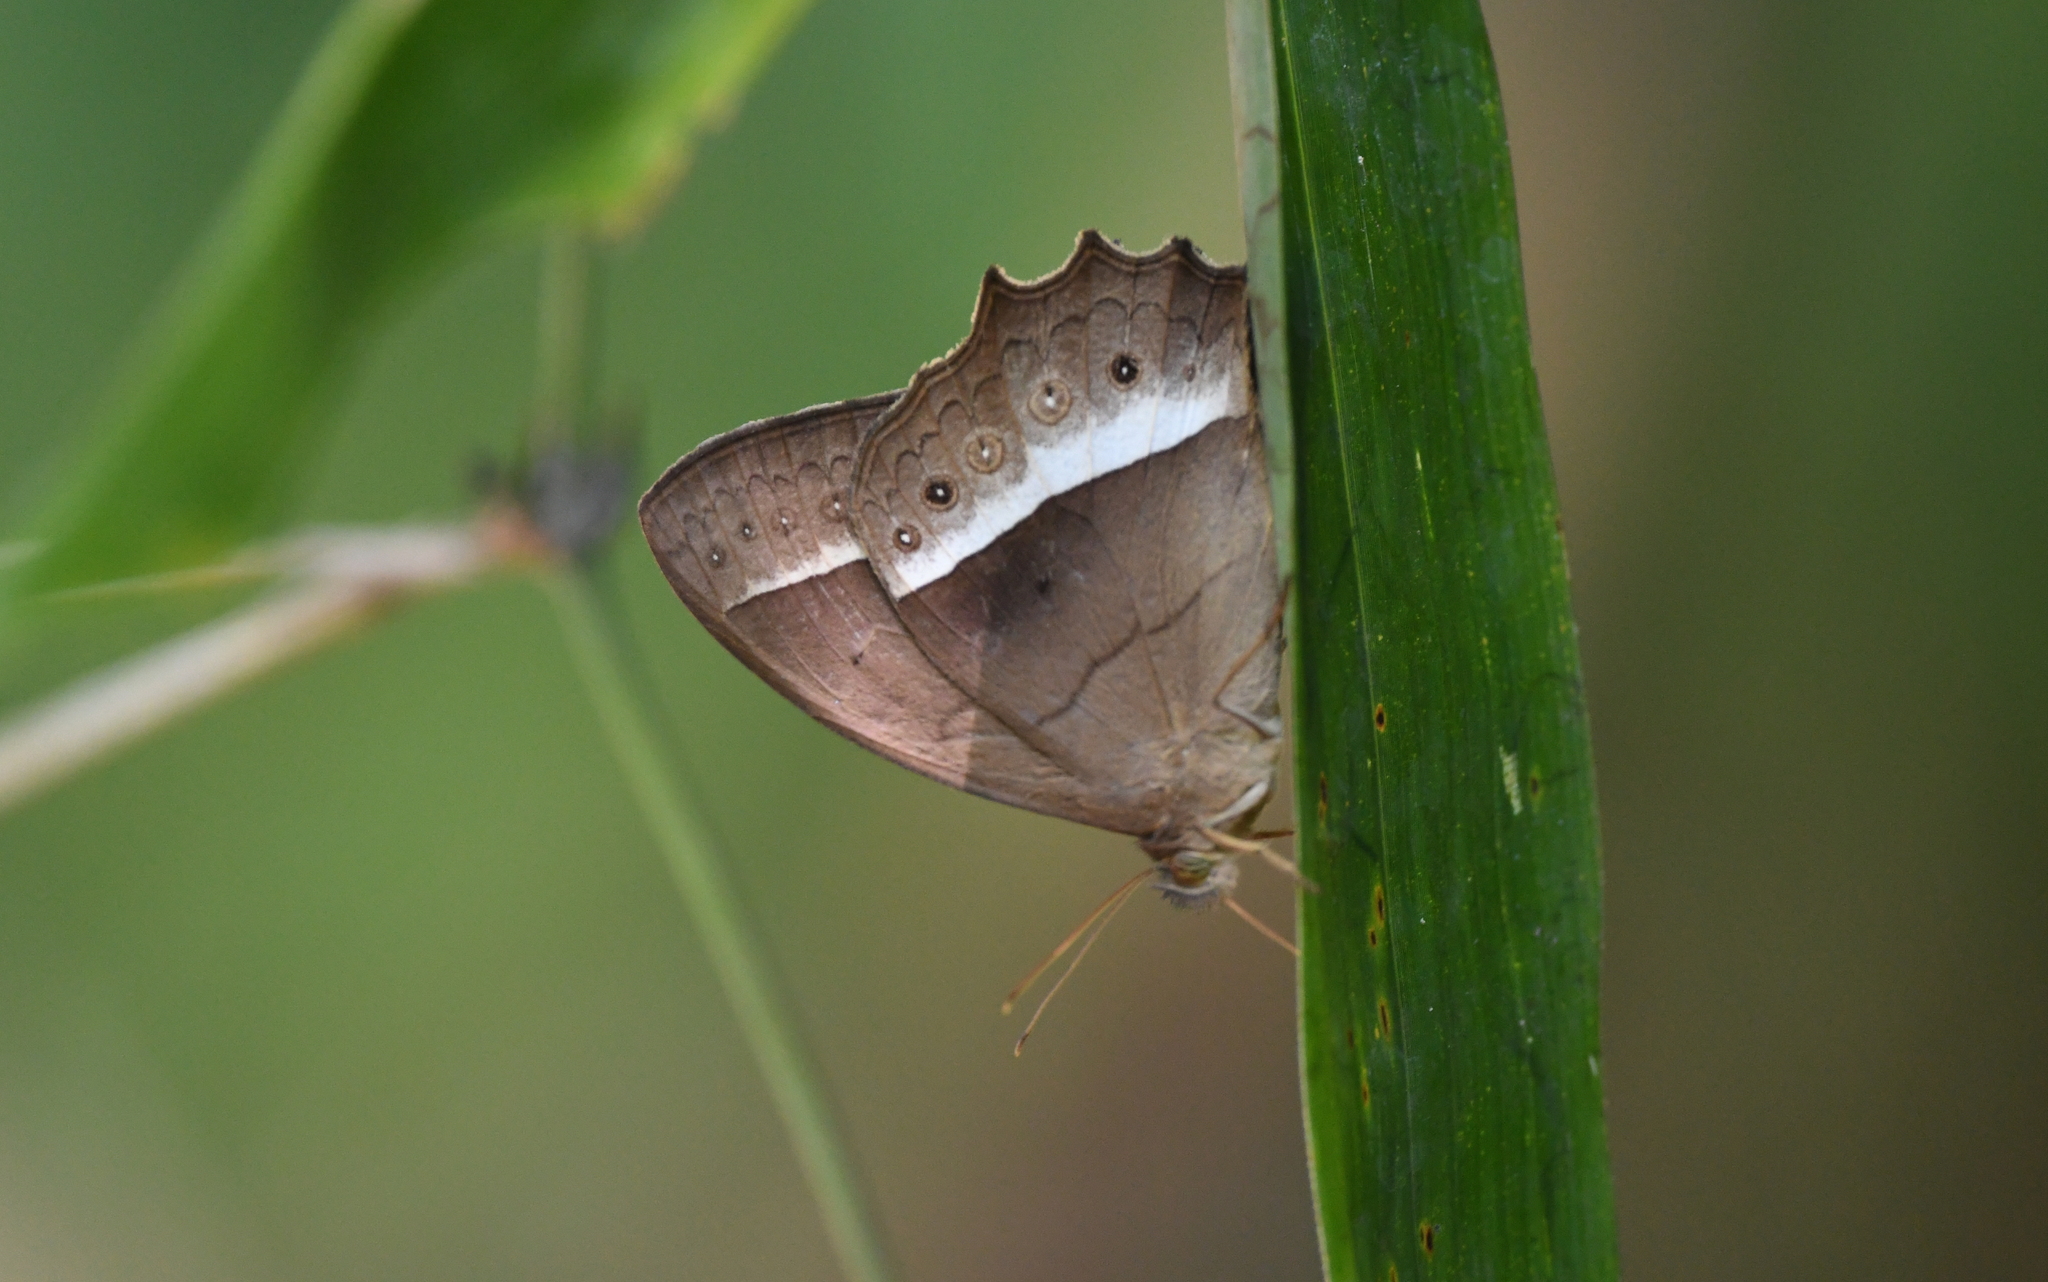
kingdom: Animalia
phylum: Arthropoda
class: Insecta
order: Lepidoptera
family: Nymphalidae
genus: Harjesia
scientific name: Harjesia blanda
